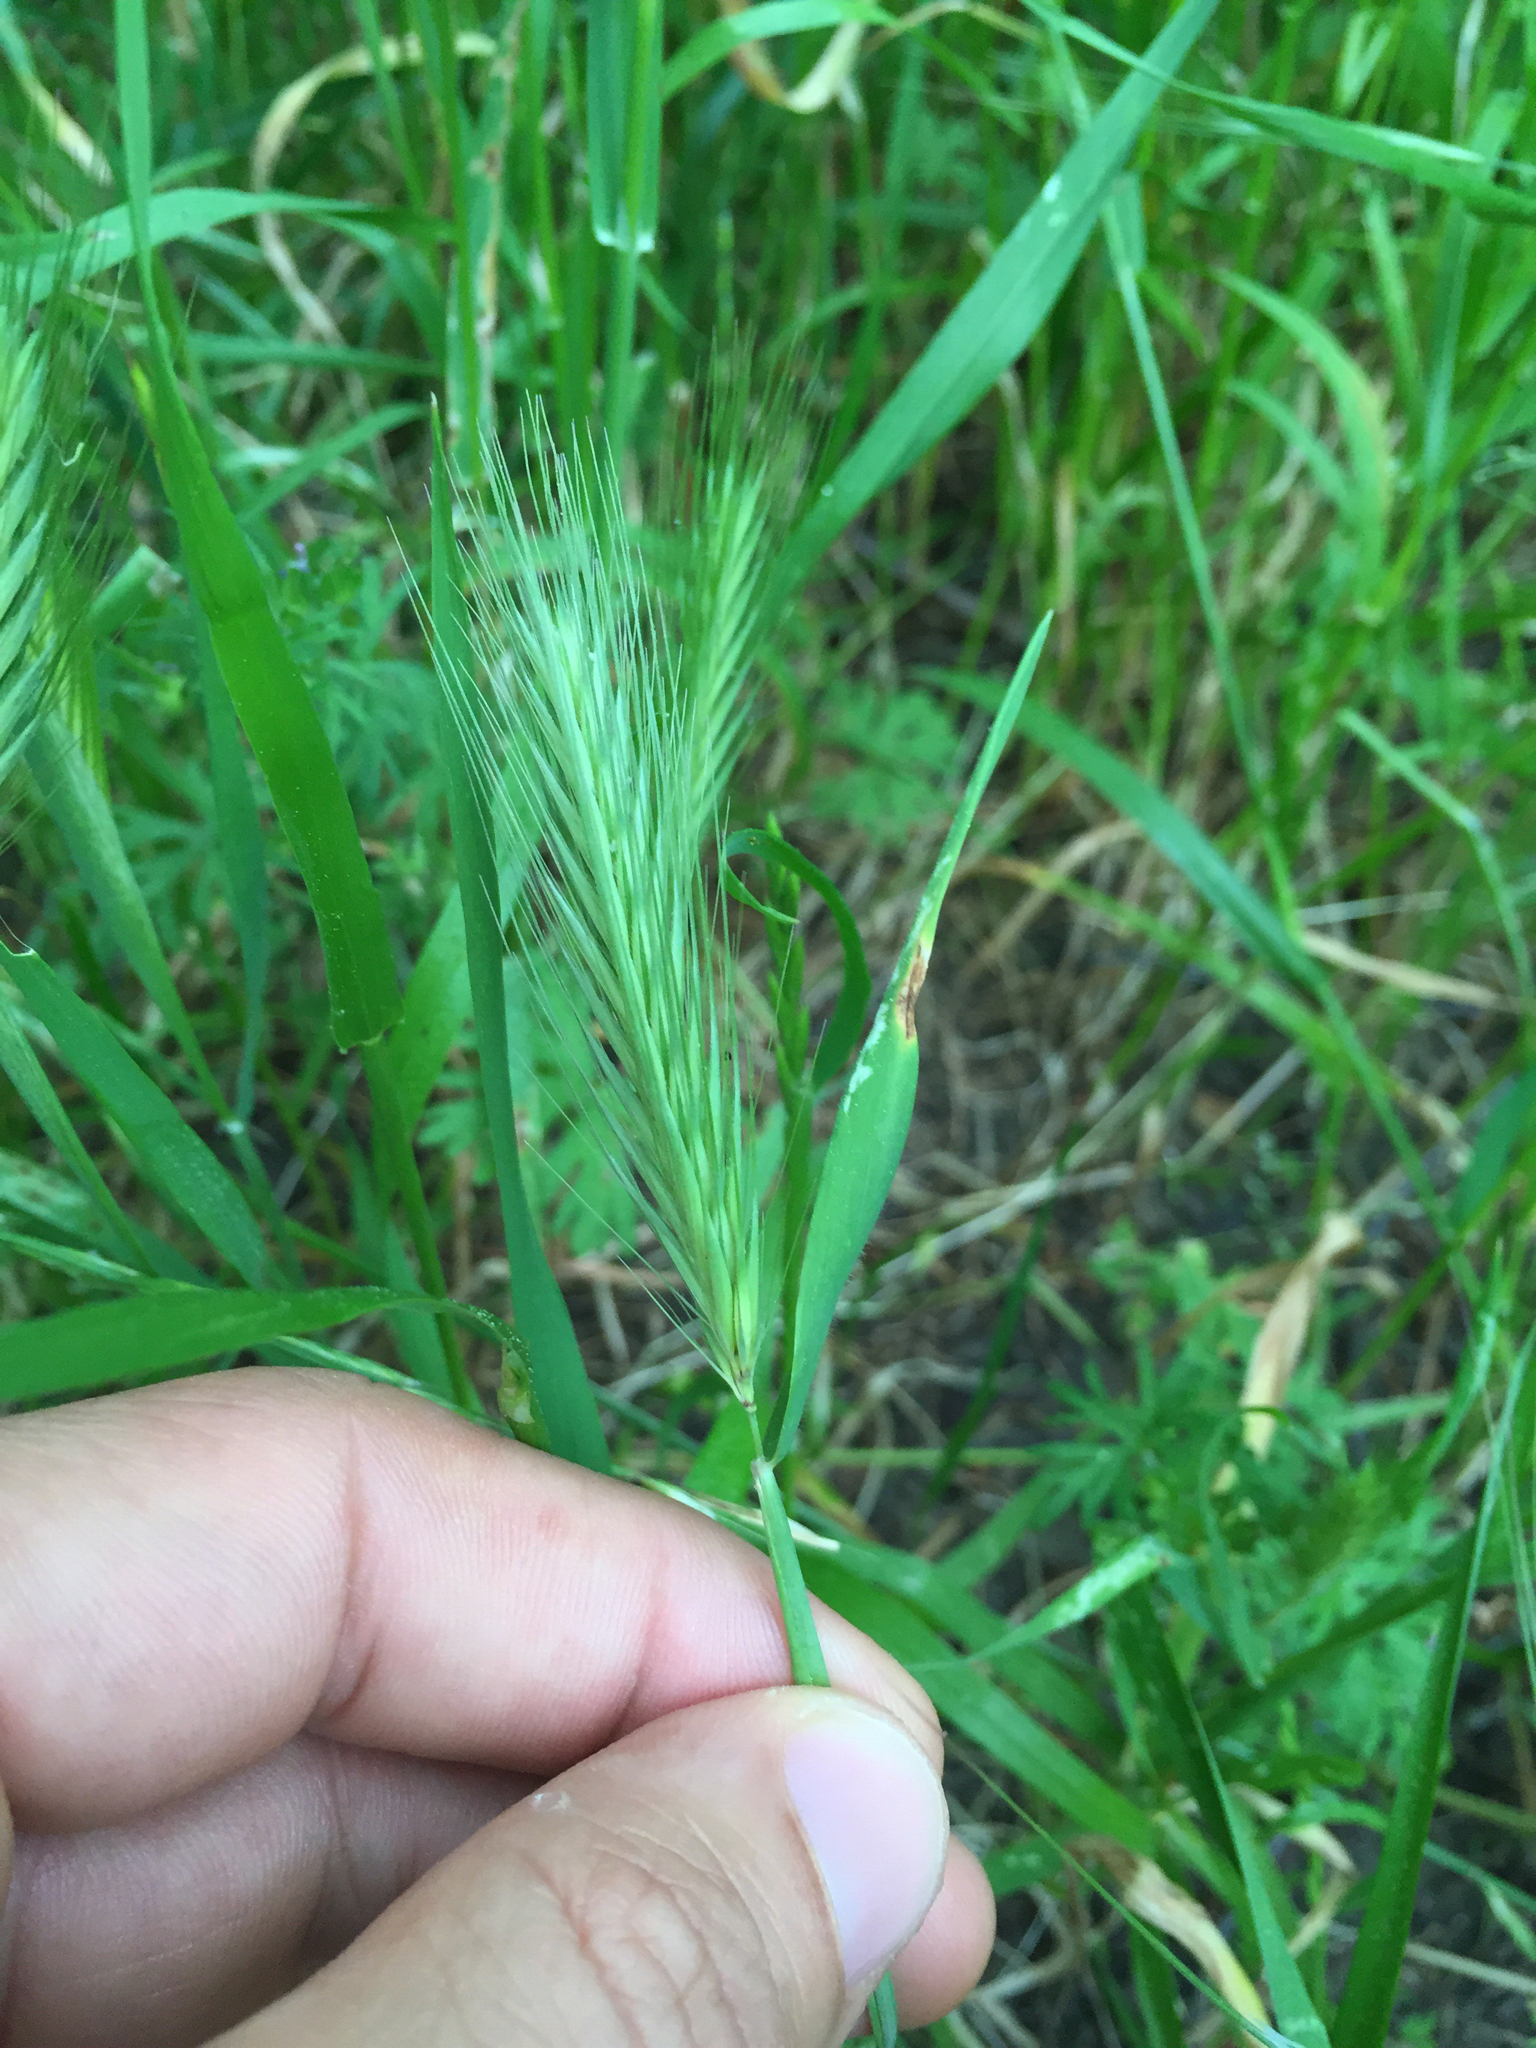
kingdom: Plantae
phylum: Tracheophyta
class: Liliopsida
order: Poales
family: Poaceae
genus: Hordeum
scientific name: Hordeum murinum
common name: Wall barley
